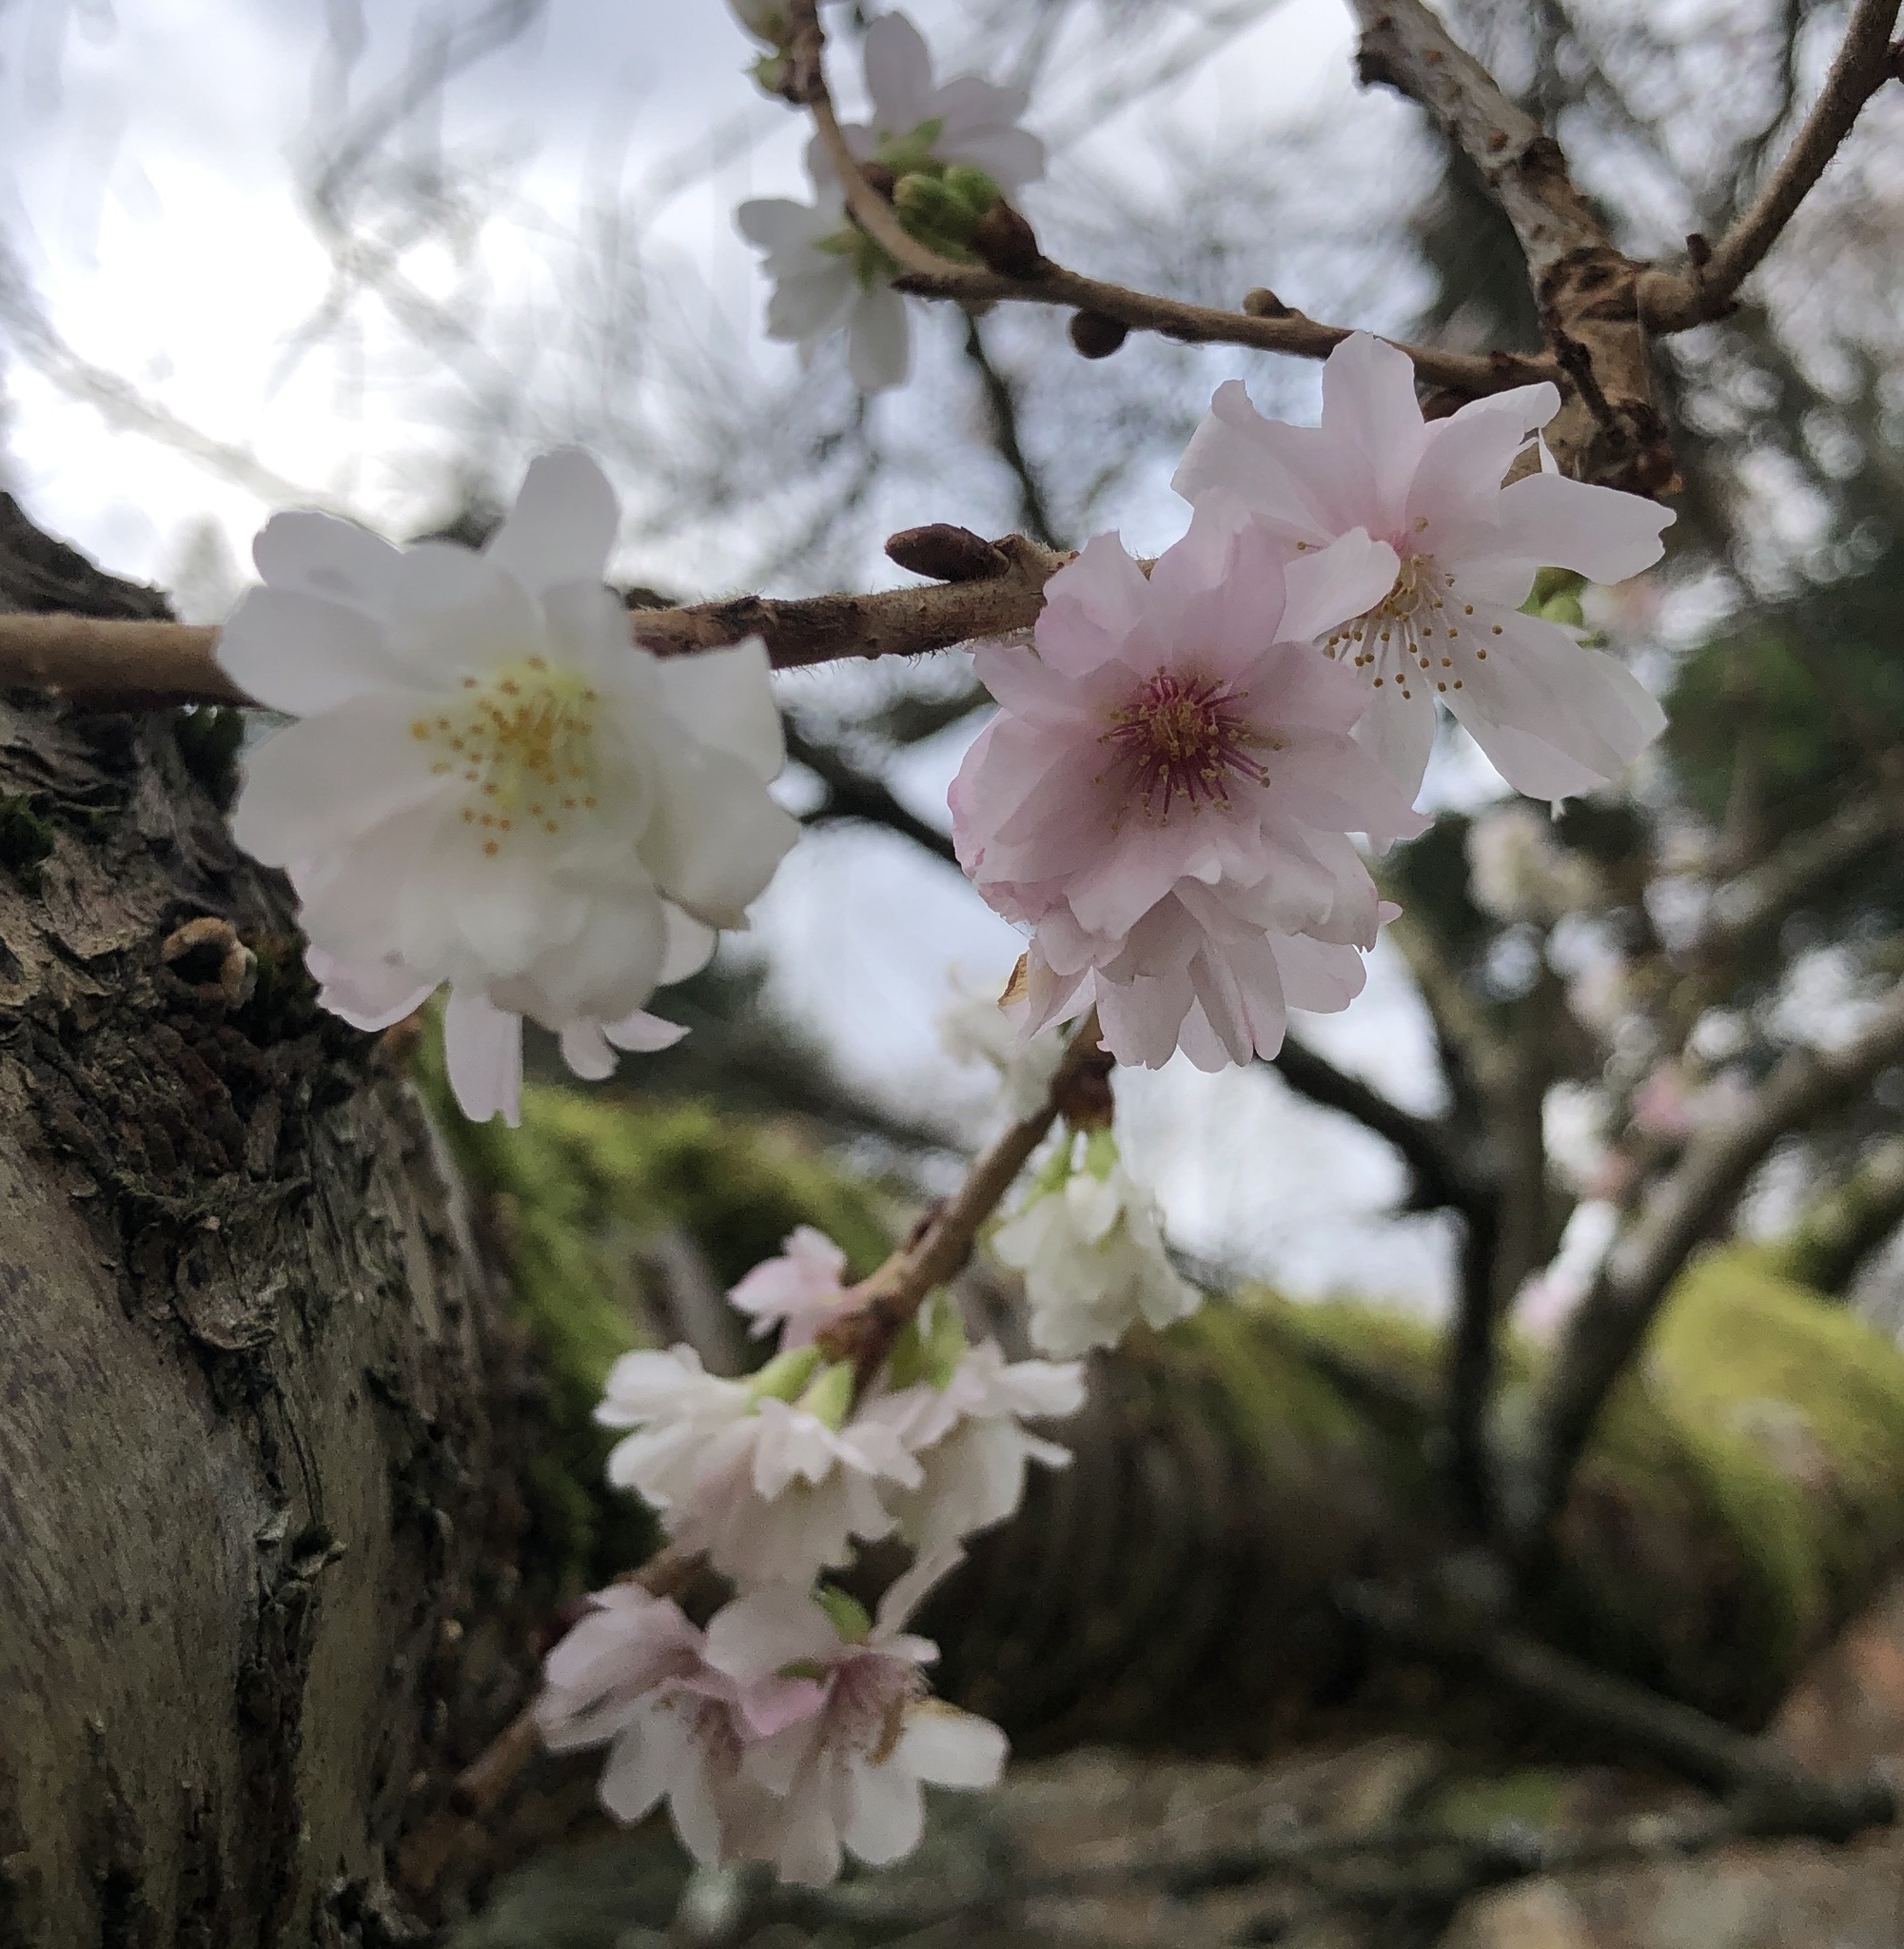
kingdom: Plantae
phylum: Tracheophyta
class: Magnoliopsida
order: Rosales
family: Rosaceae
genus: Prunus
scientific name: Prunus subhirtella
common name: Winter-flowering cherry
